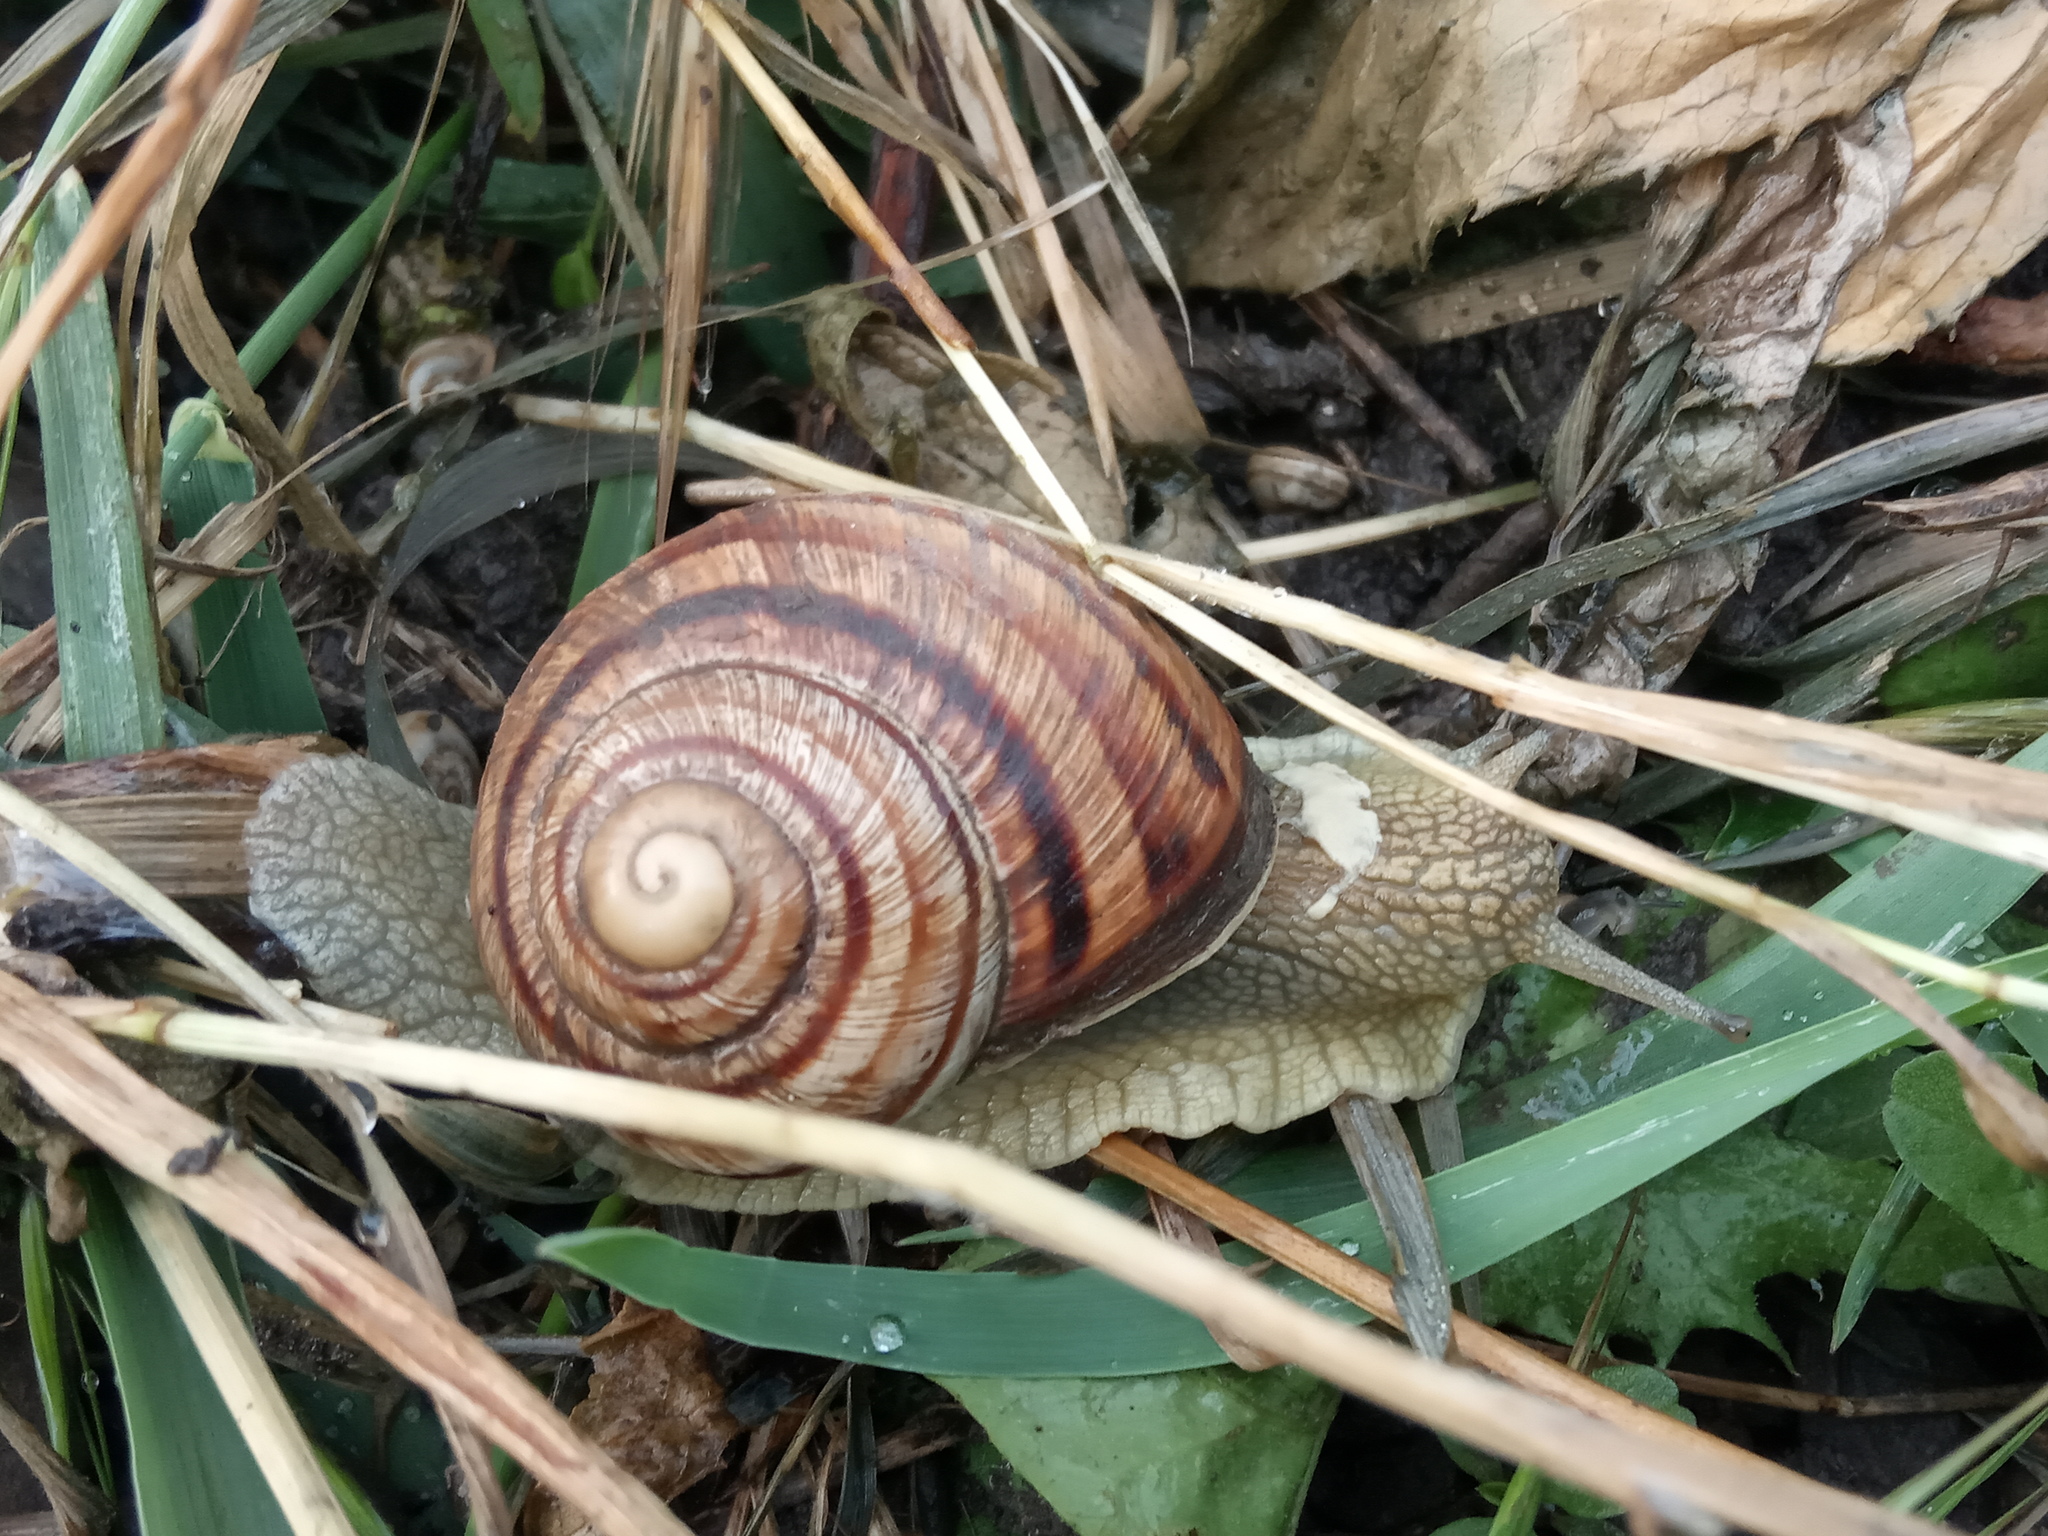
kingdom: Animalia
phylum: Mollusca
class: Gastropoda
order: Stylommatophora
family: Helicidae
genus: Helix
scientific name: Helix albescens
